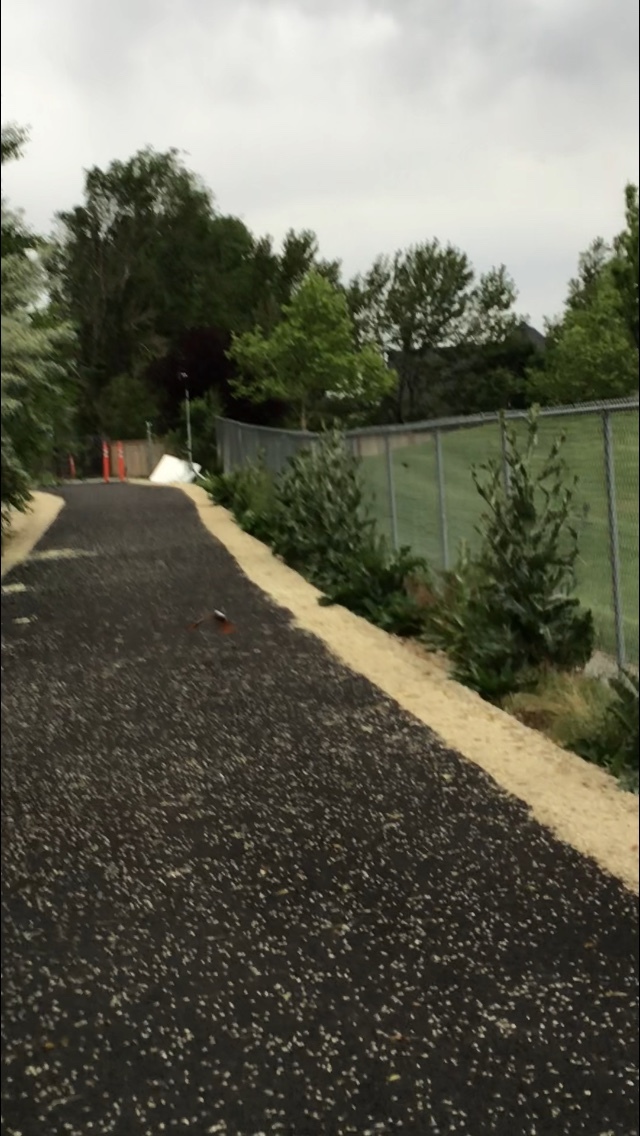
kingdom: Animalia
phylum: Chordata
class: Aves
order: Piciformes
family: Picidae
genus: Colaptes
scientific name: Colaptes auratus
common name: Northern flicker
